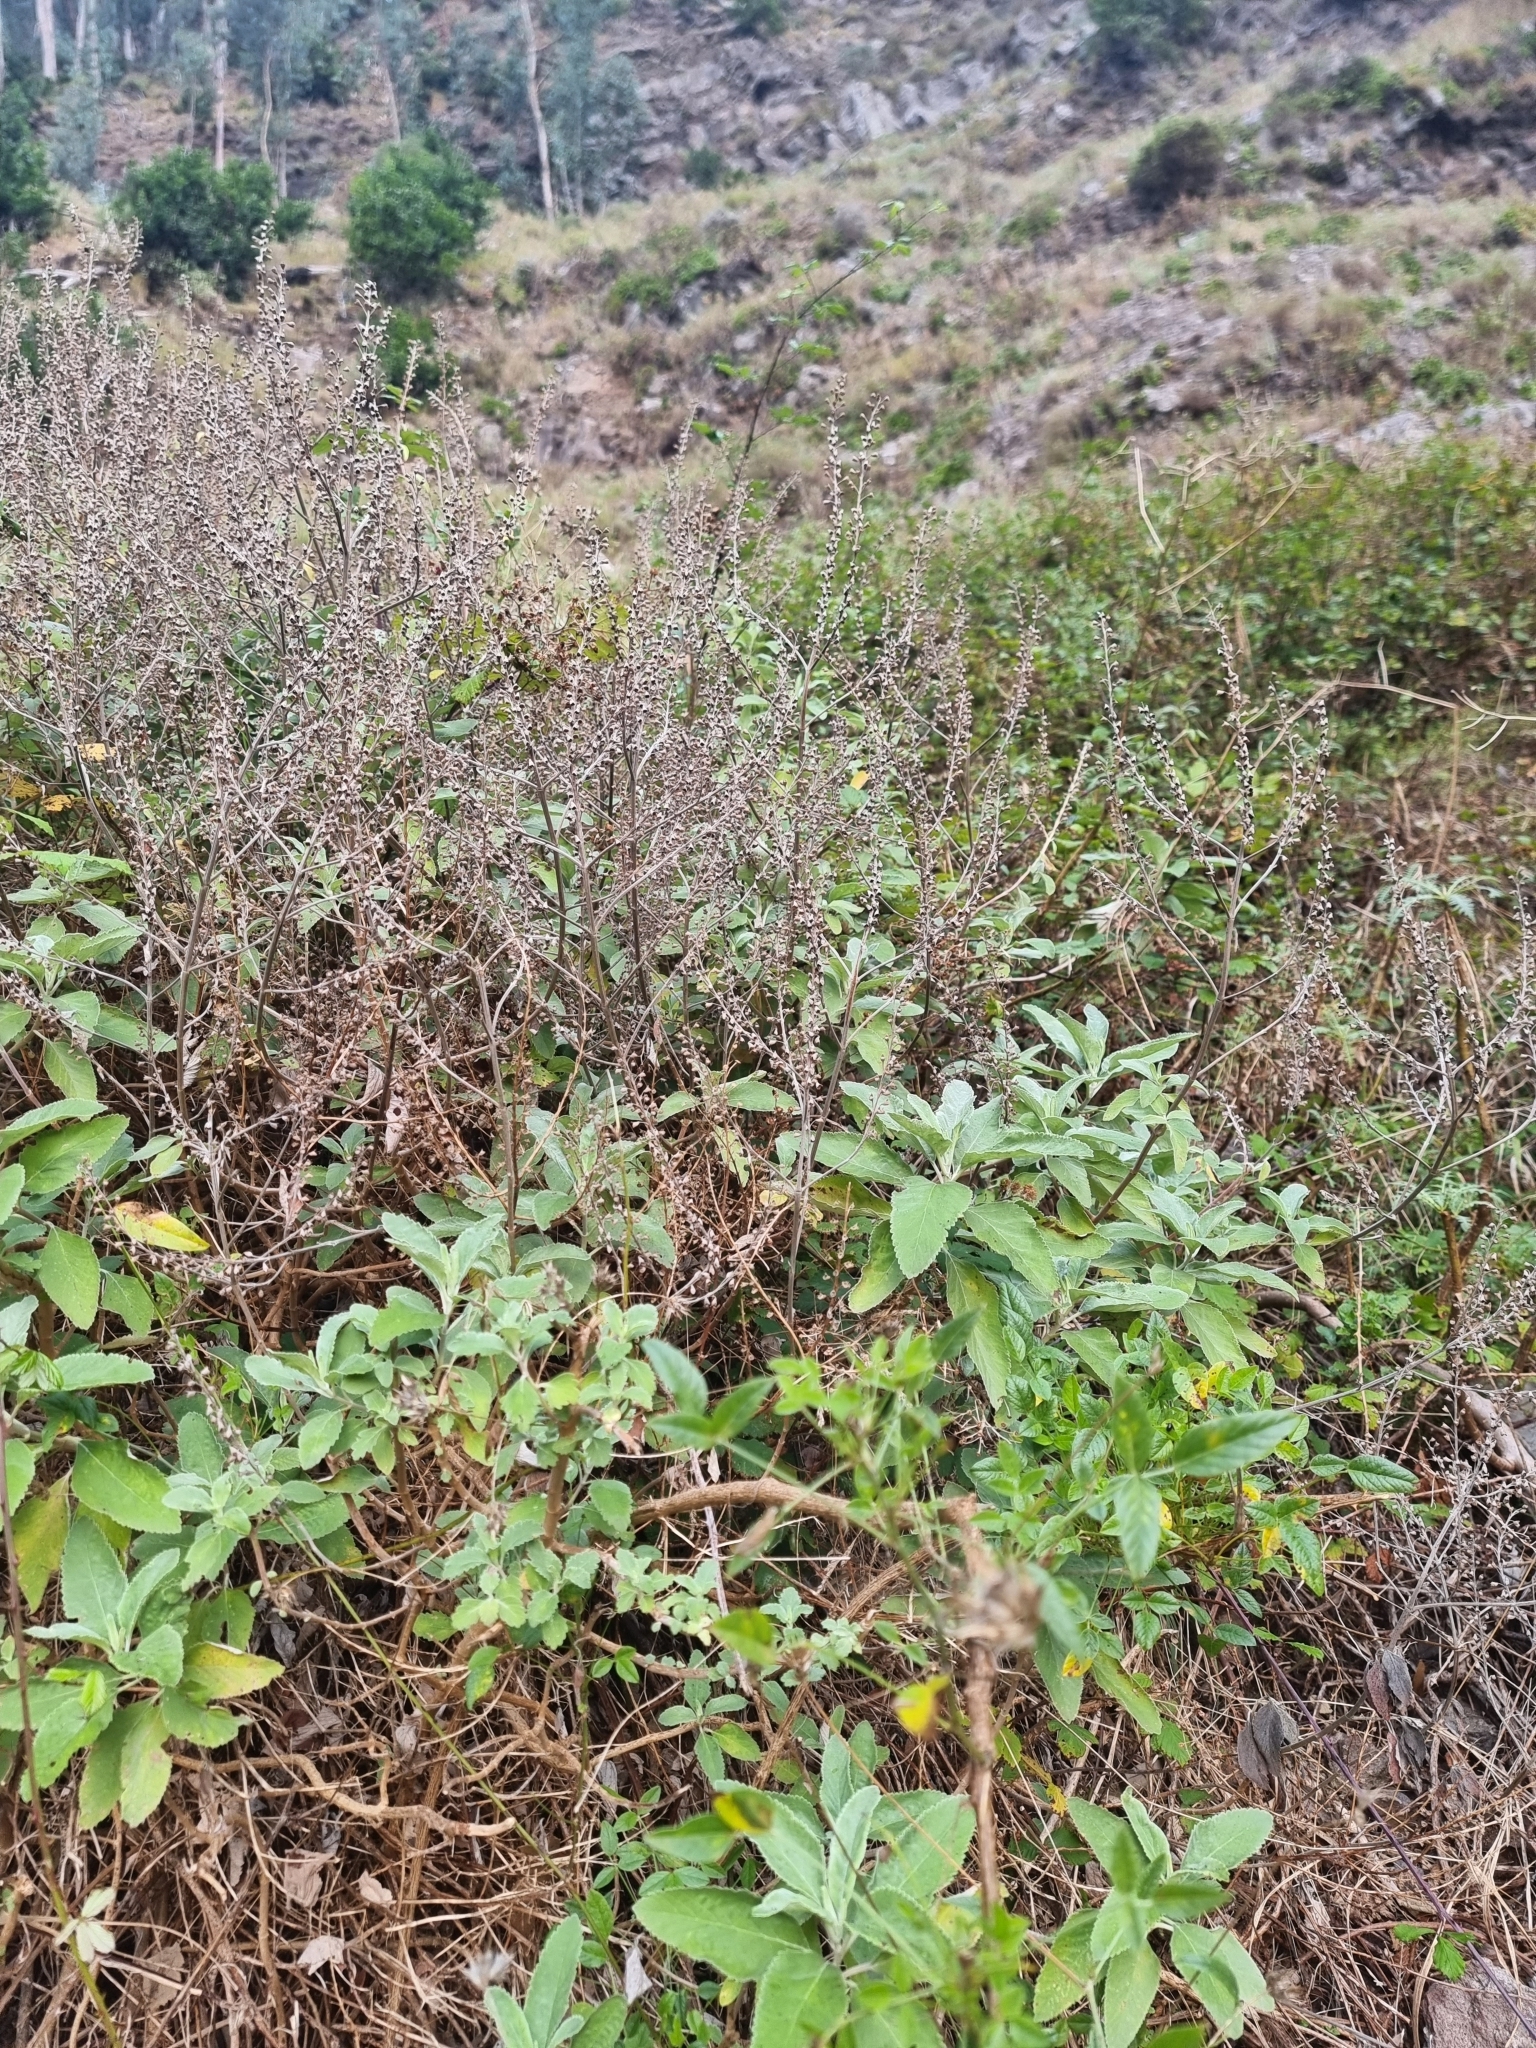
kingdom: Plantae
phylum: Tracheophyta
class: Magnoliopsida
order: Lamiales
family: Lamiaceae
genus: Teucrium
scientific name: Teucrium betonicum
